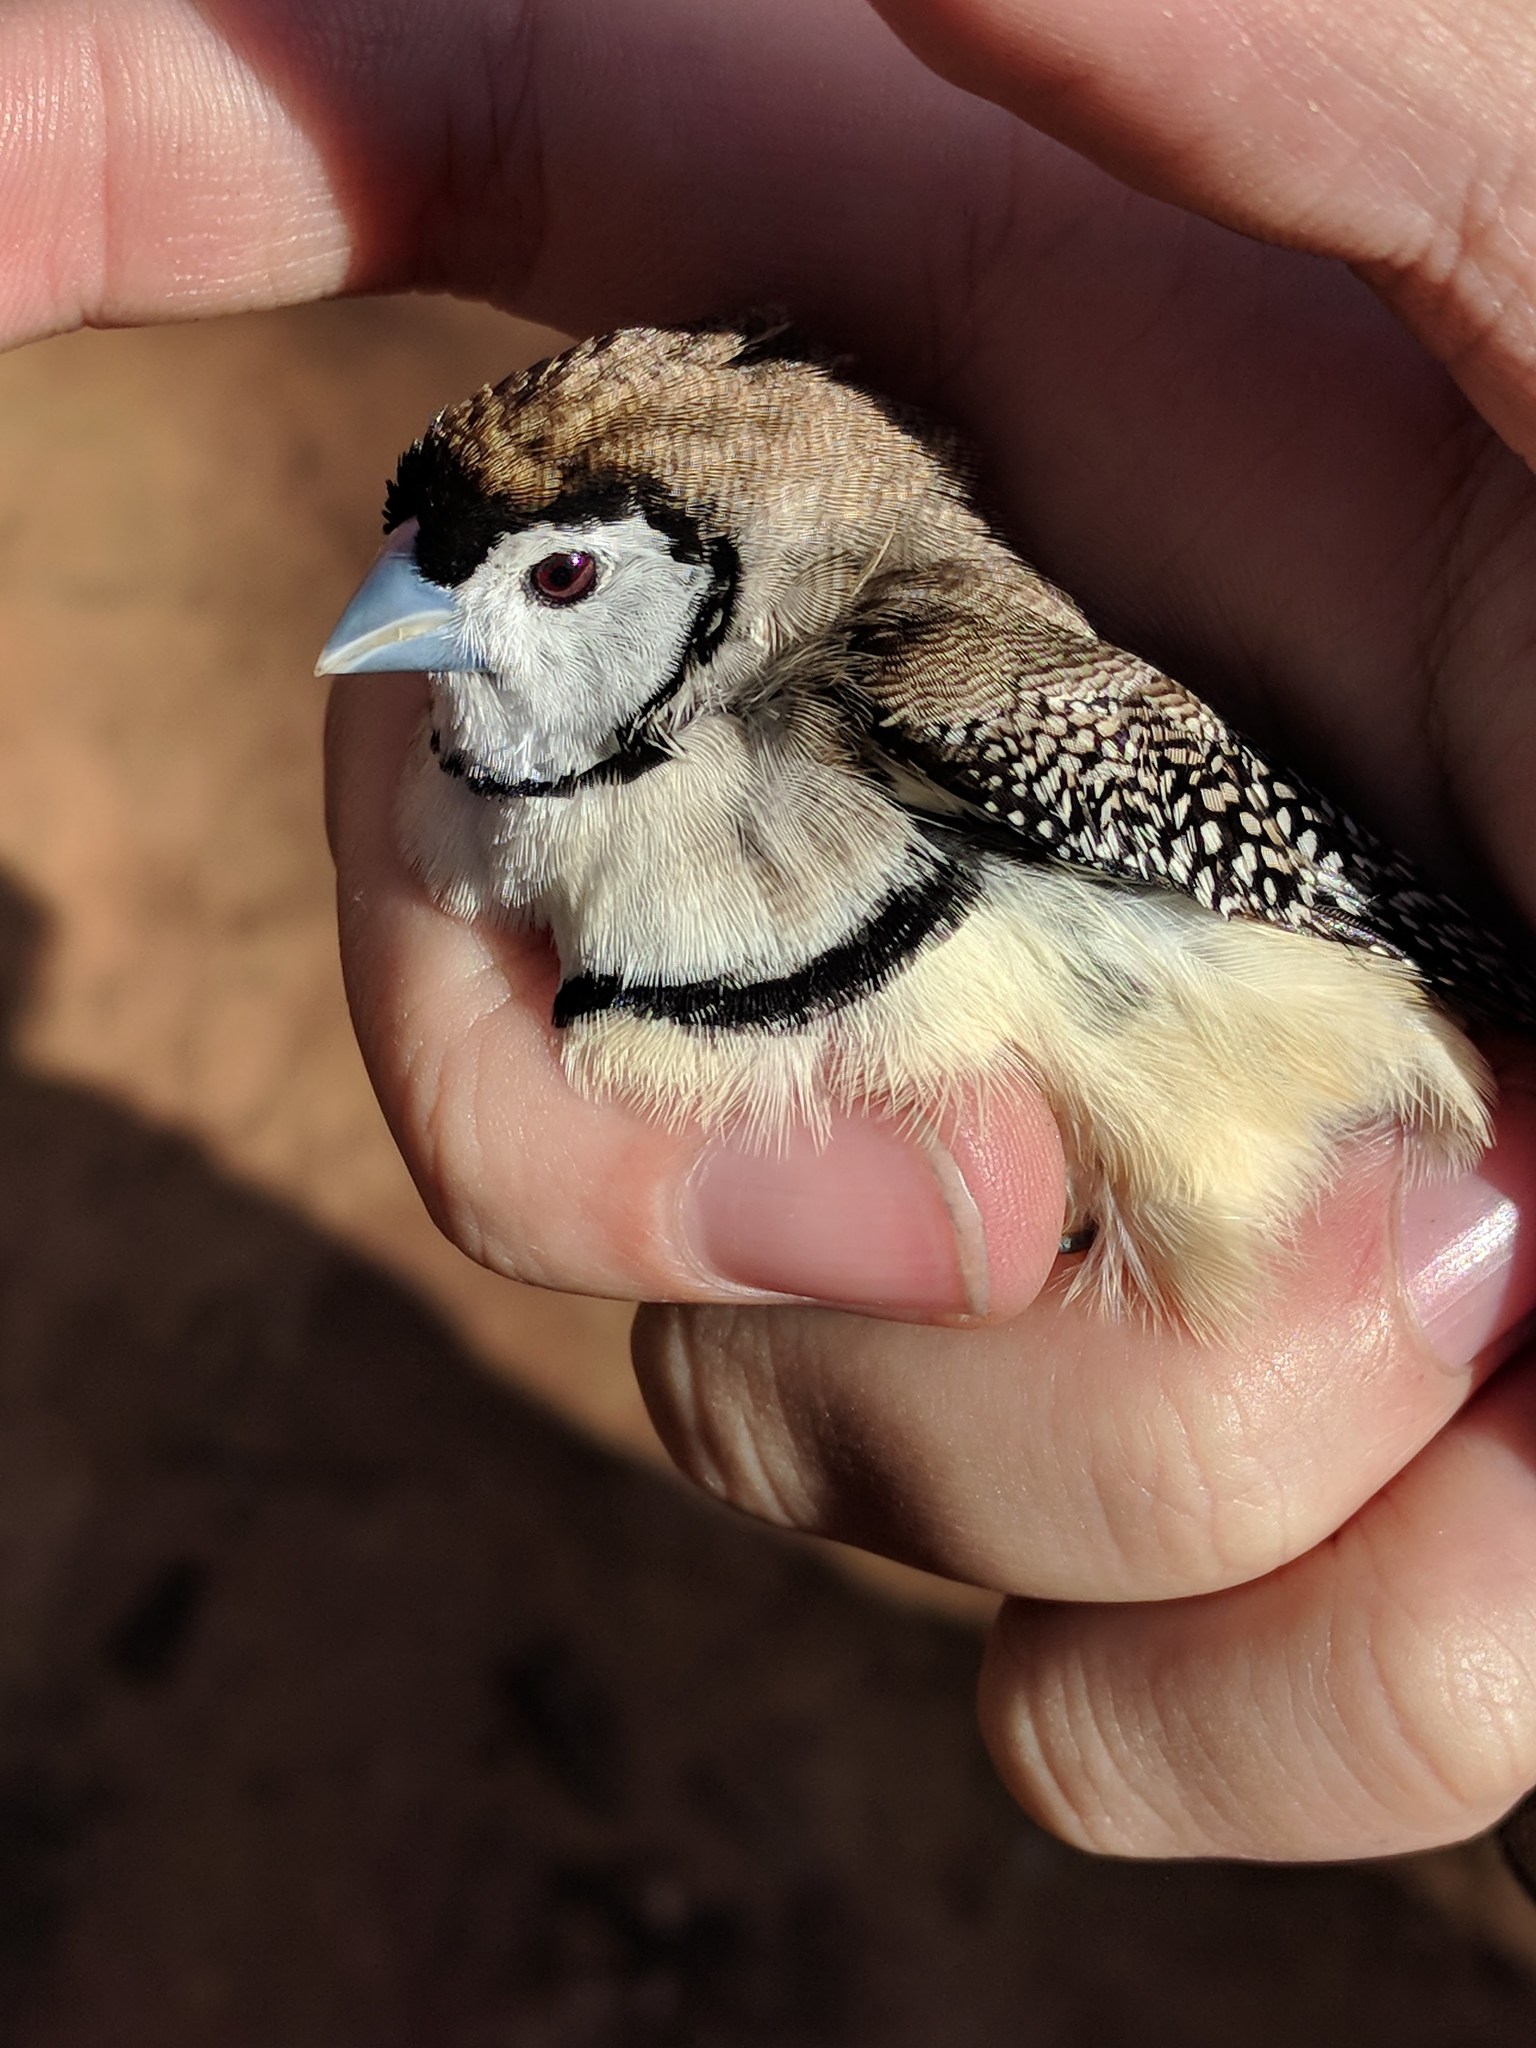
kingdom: Animalia
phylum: Chordata
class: Aves
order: Passeriformes
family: Estrildidae
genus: Taeniopygia
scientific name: Taeniopygia bichenovii
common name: Double-barred finch
